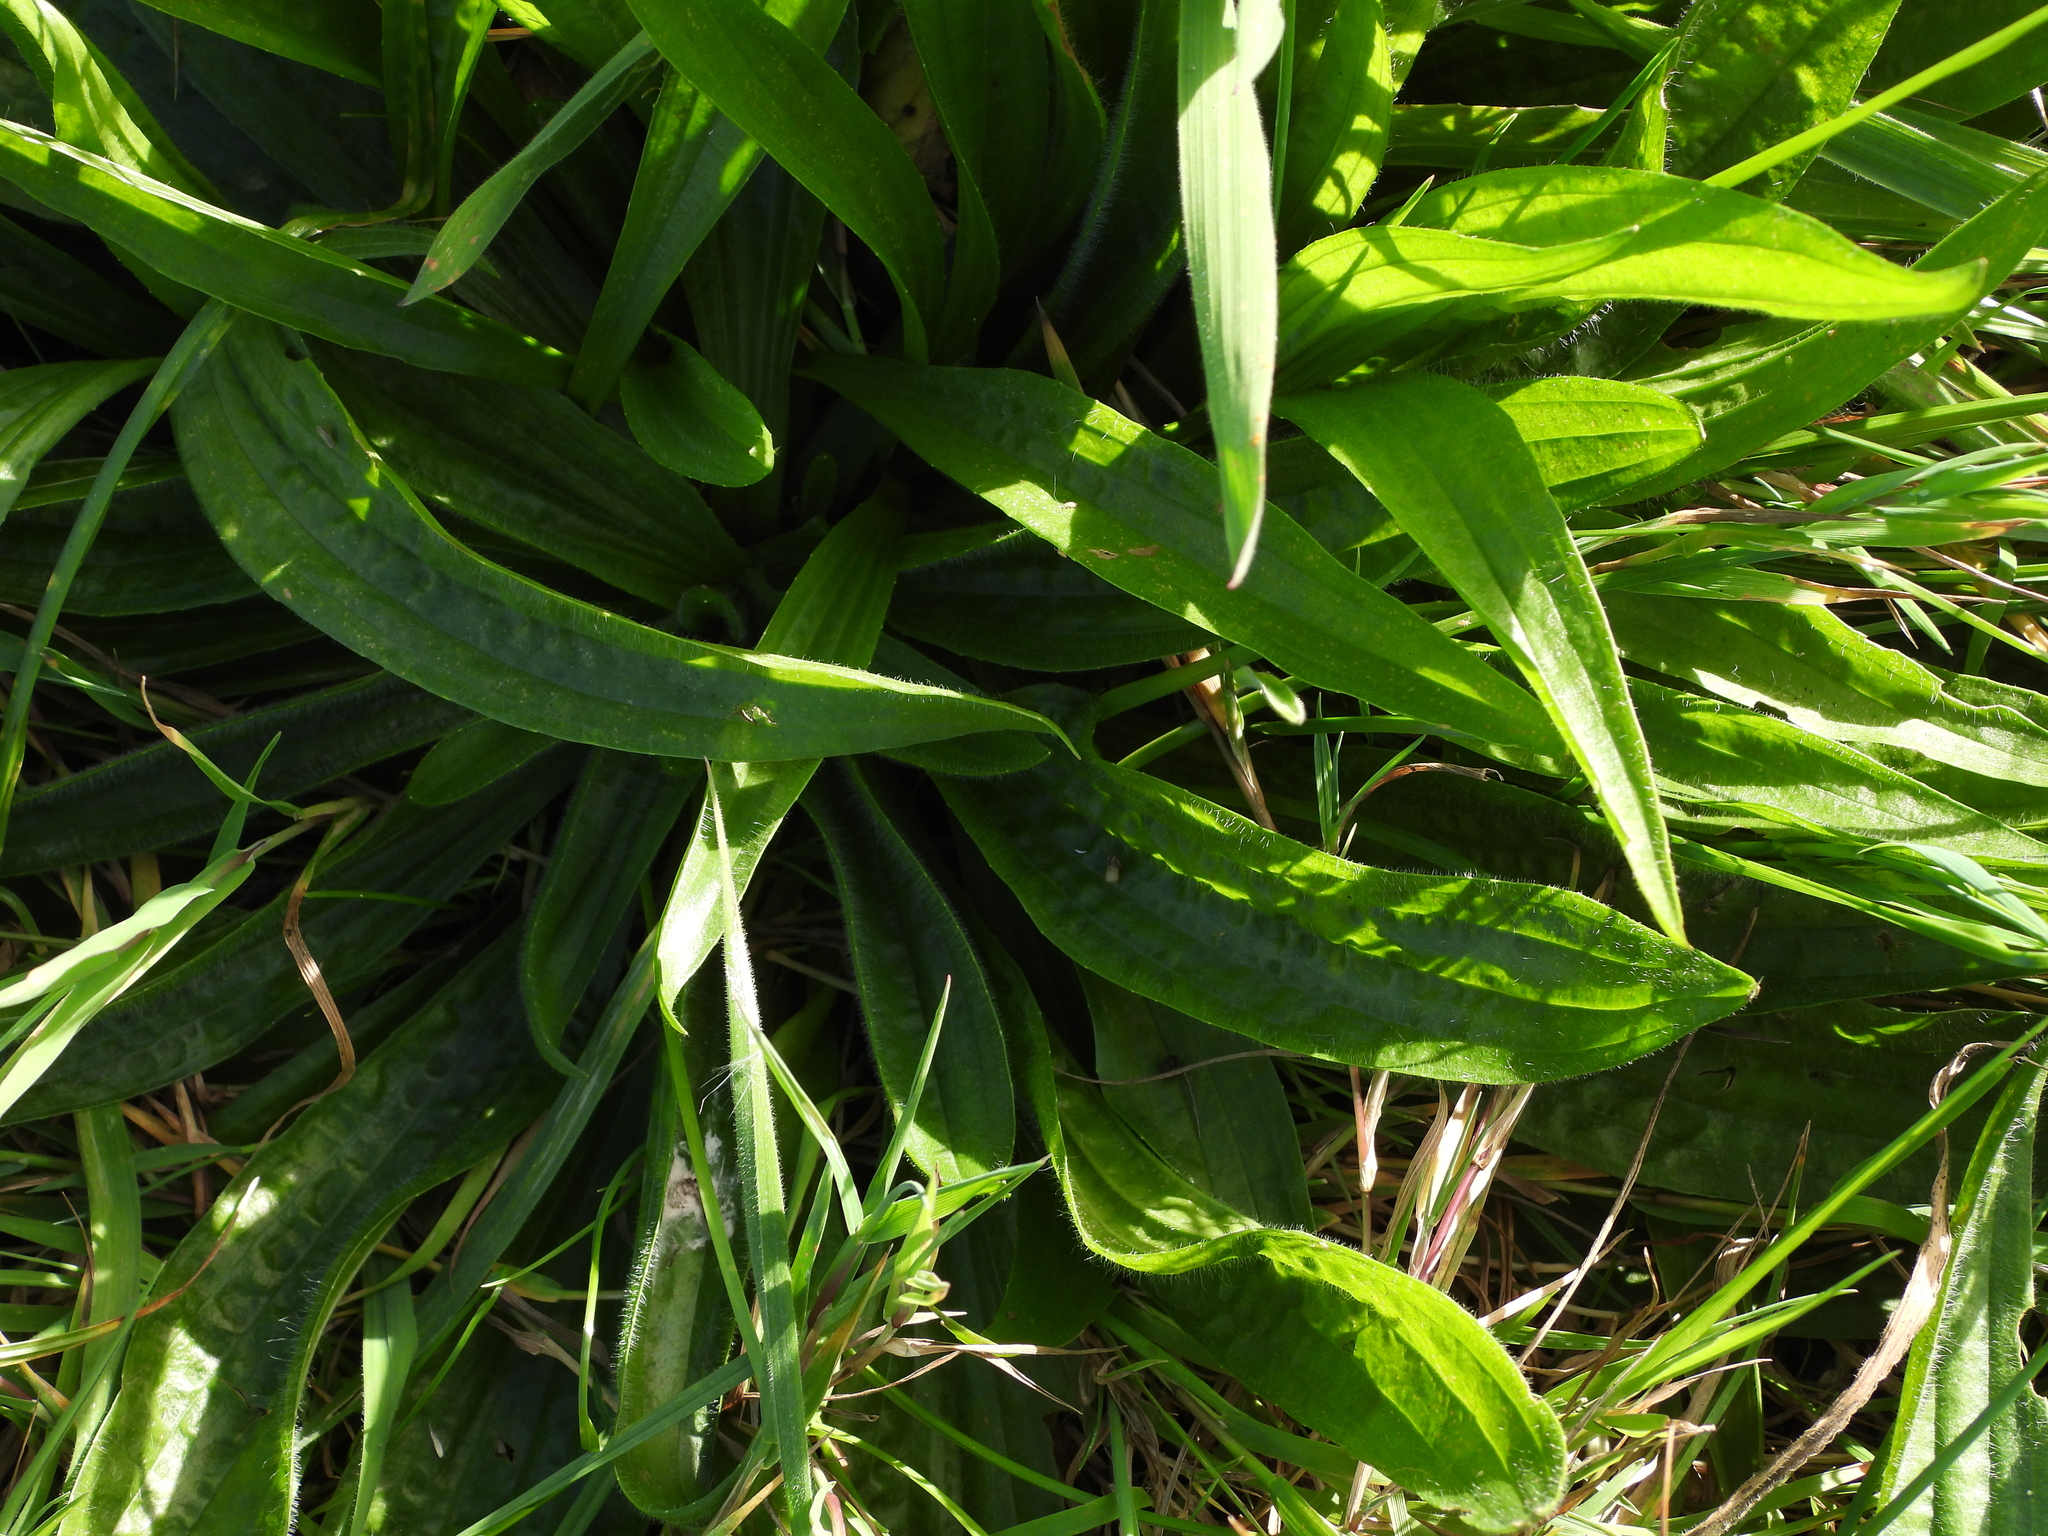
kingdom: Plantae
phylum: Tracheophyta
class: Magnoliopsida
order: Lamiales
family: Plantaginaceae
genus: Plantago
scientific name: Plantago lanceolata
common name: Ribwort plantain
